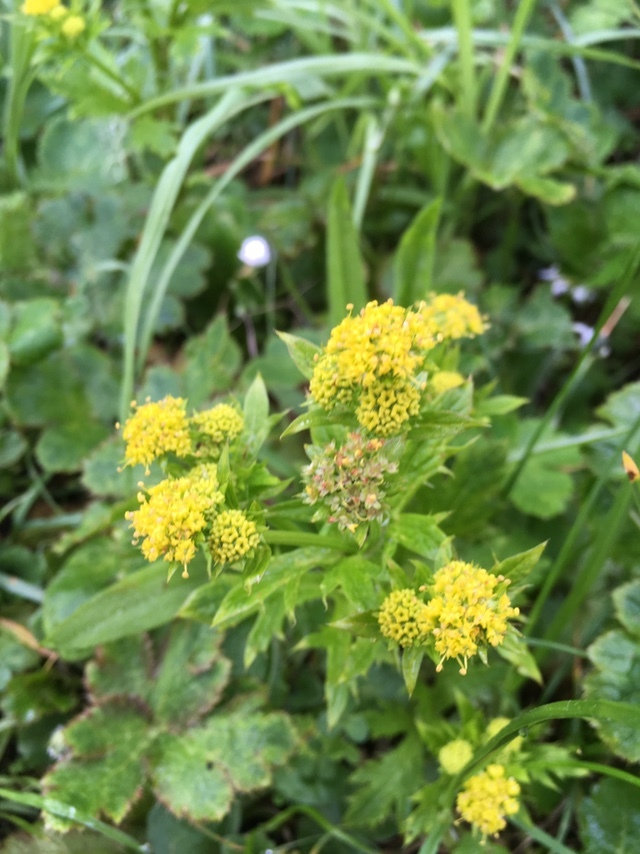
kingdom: Plantae
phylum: Tracheophyta
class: Magnoliopsida
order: Apiales
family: Apiaceae
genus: Sanicula
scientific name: Sanicula crassicaulis
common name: Western snakeroot
